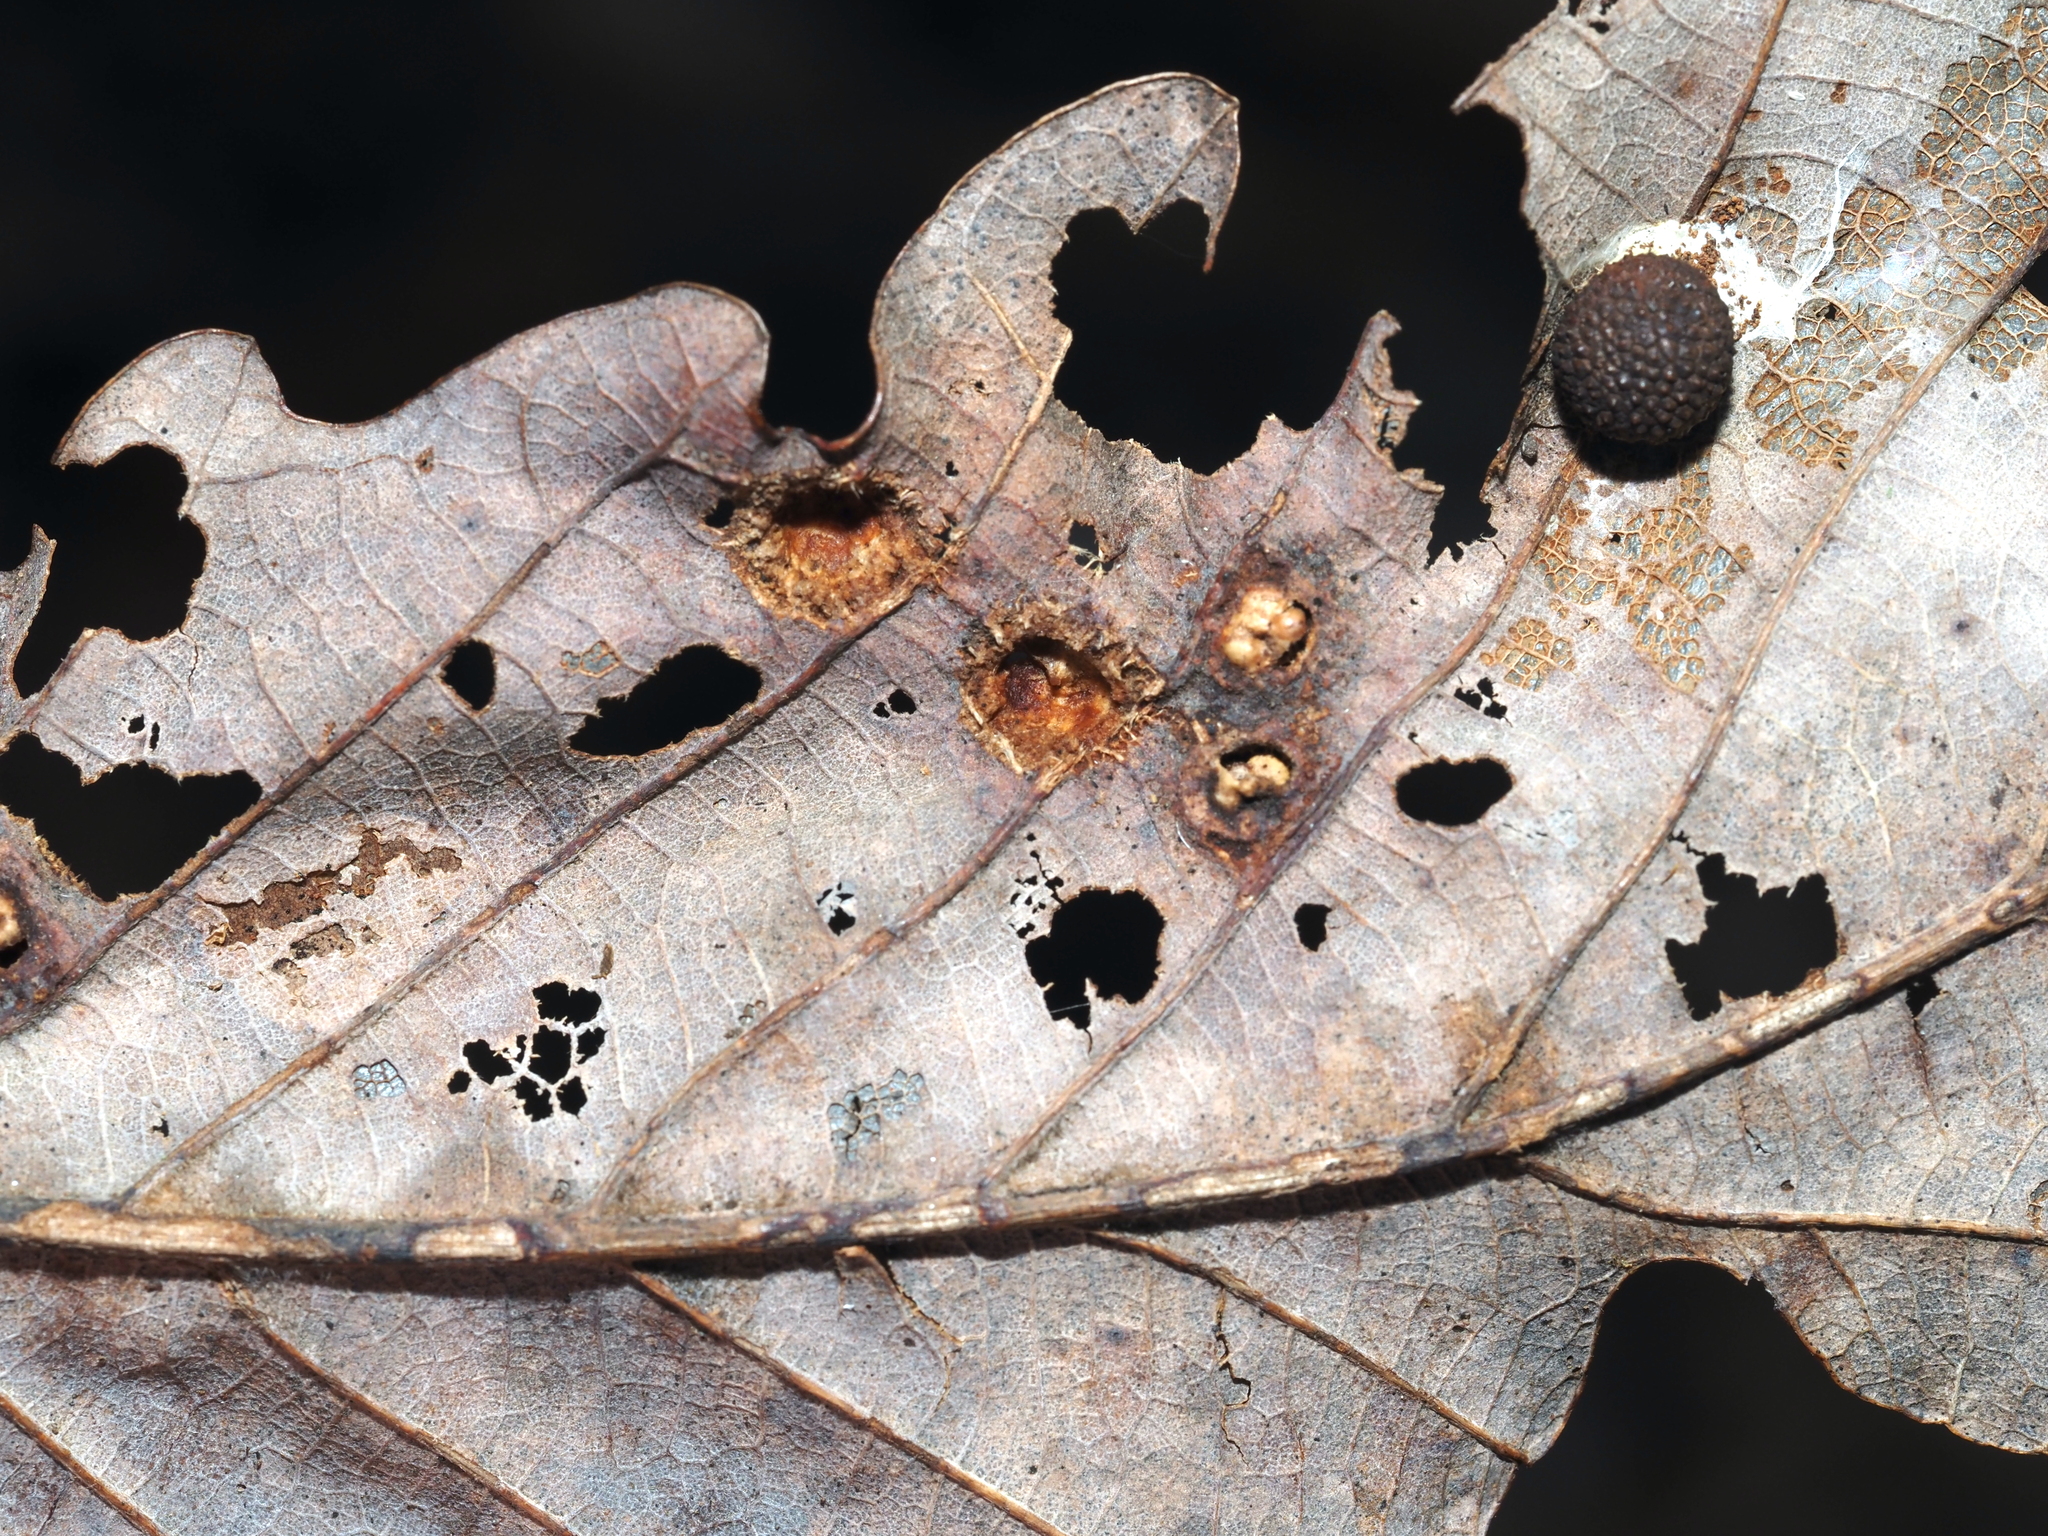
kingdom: Animalia
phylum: Arthropoda
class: Insecta
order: Hymenoptera
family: Cynipidae
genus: Callirhytis
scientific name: Callirhytis
